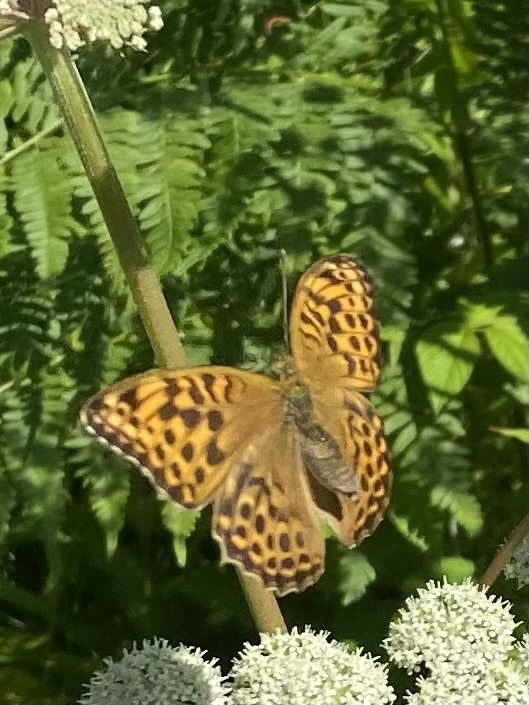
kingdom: Animalia
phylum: Arthropoda
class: Insecta
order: Lepidoptera
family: Nymphalidae
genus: Argynnis
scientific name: Argynnis paphia
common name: Silver-washed fritillary
